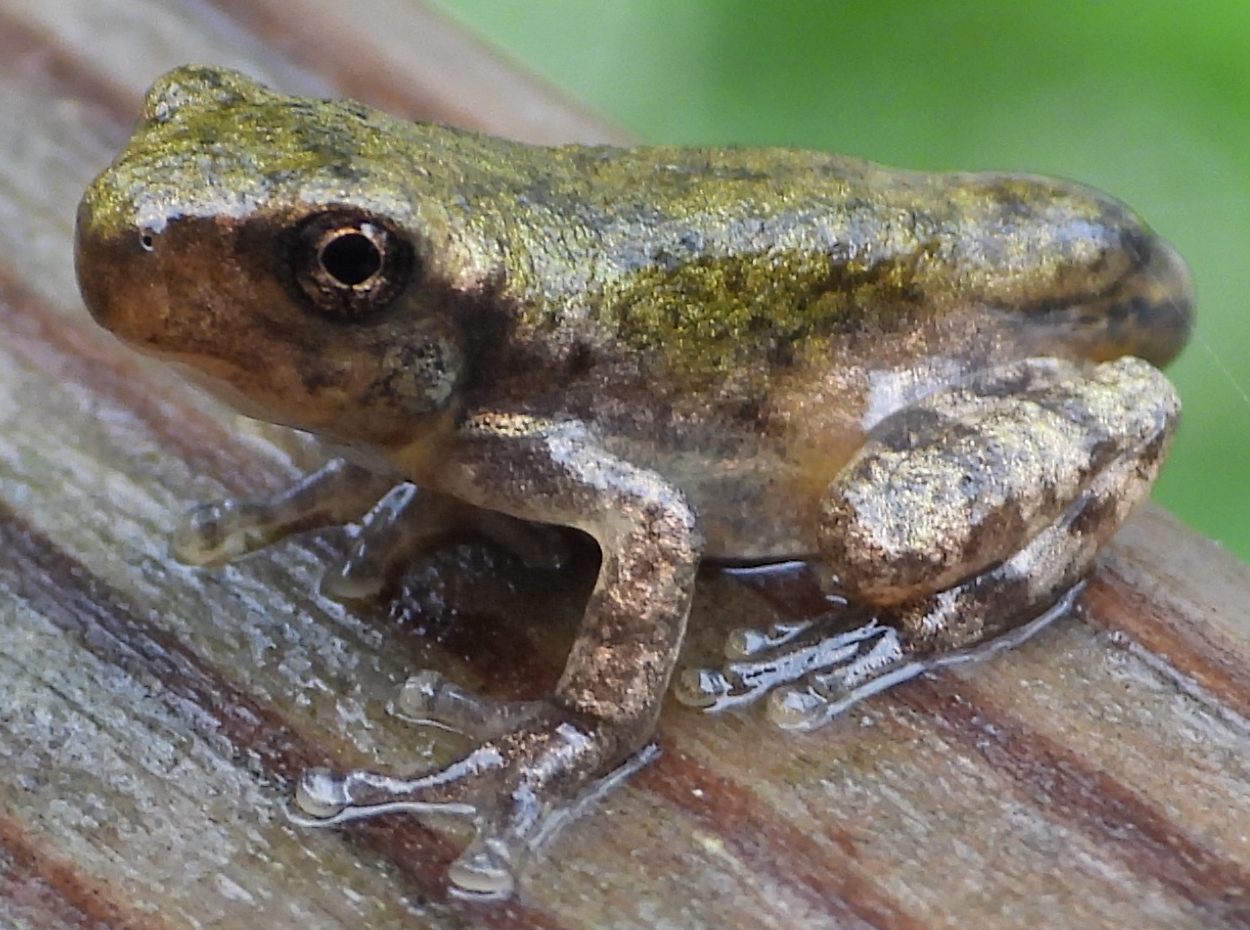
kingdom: Animalia
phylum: Chordata
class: Amphibia
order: Anura
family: Hylidae
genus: Hyla
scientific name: Hyla
